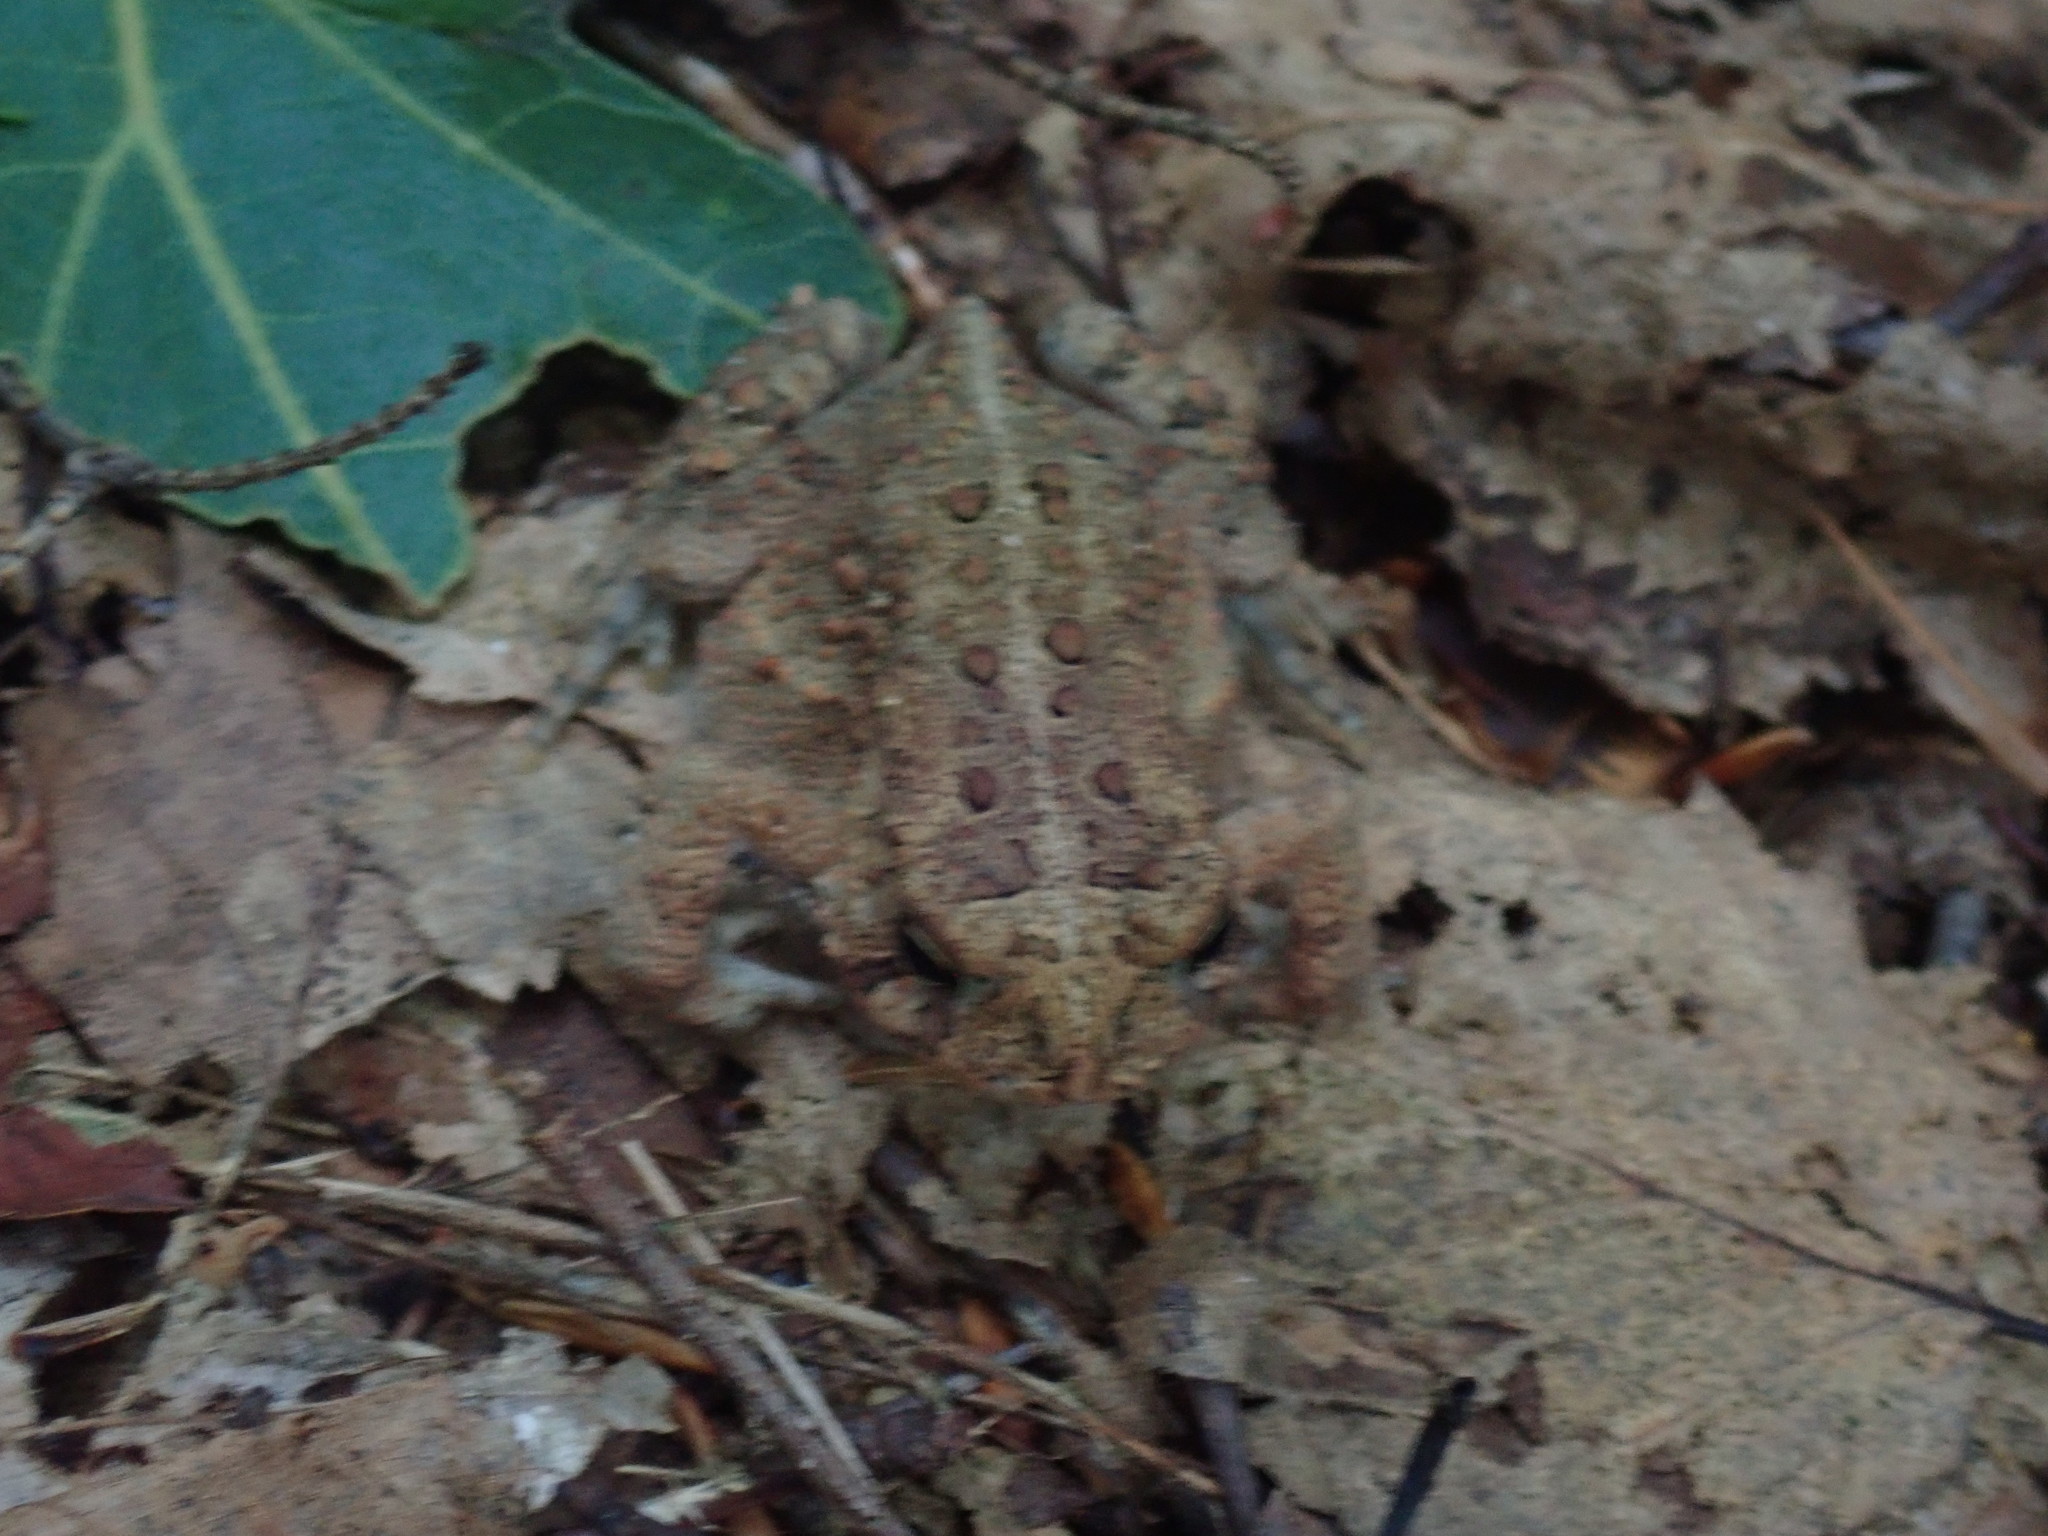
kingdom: Animalia
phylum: Chordata
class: Amphibia
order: Anura
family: Bufonidae
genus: Anaxyrus
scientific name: Anaxyrus americanus
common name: American toad
